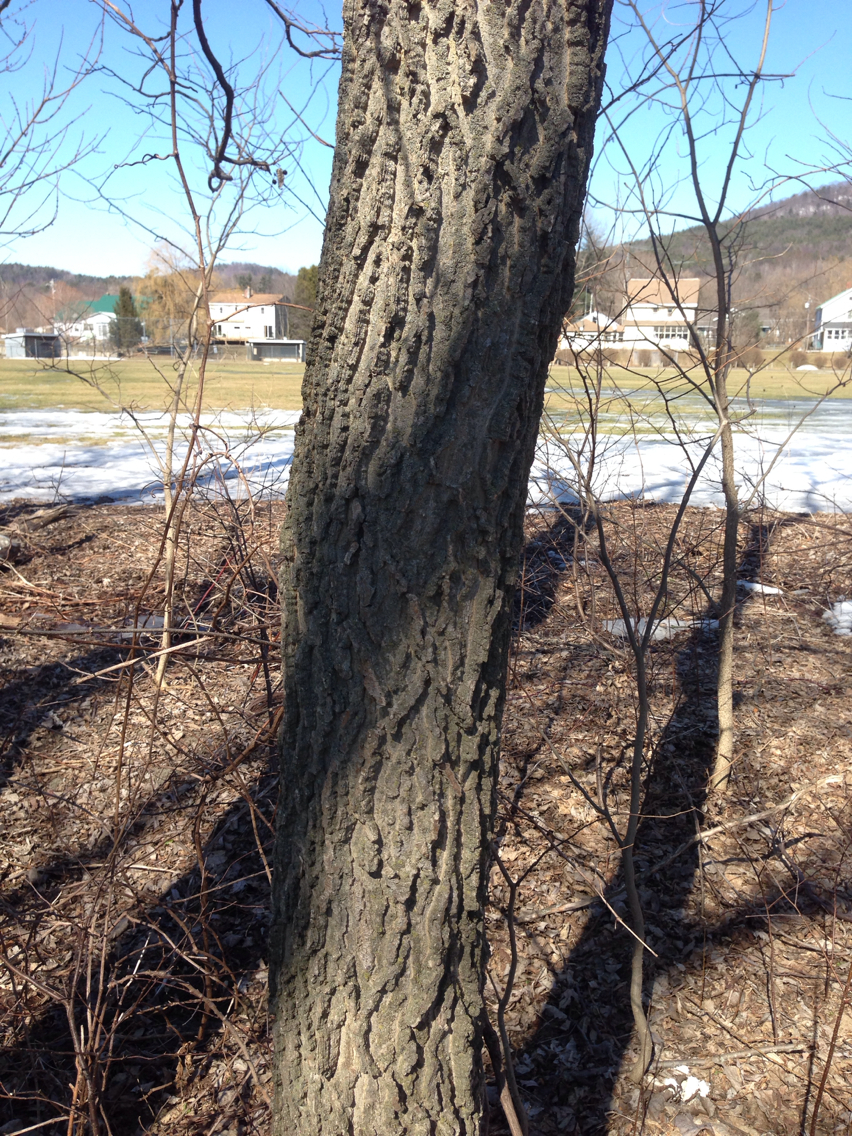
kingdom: Plantae
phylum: Tracheophyta
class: Magnoliopsida
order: Rosales
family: Cannabaceae
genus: Celtis
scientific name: Celtis occidentalis
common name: Common hackberry
